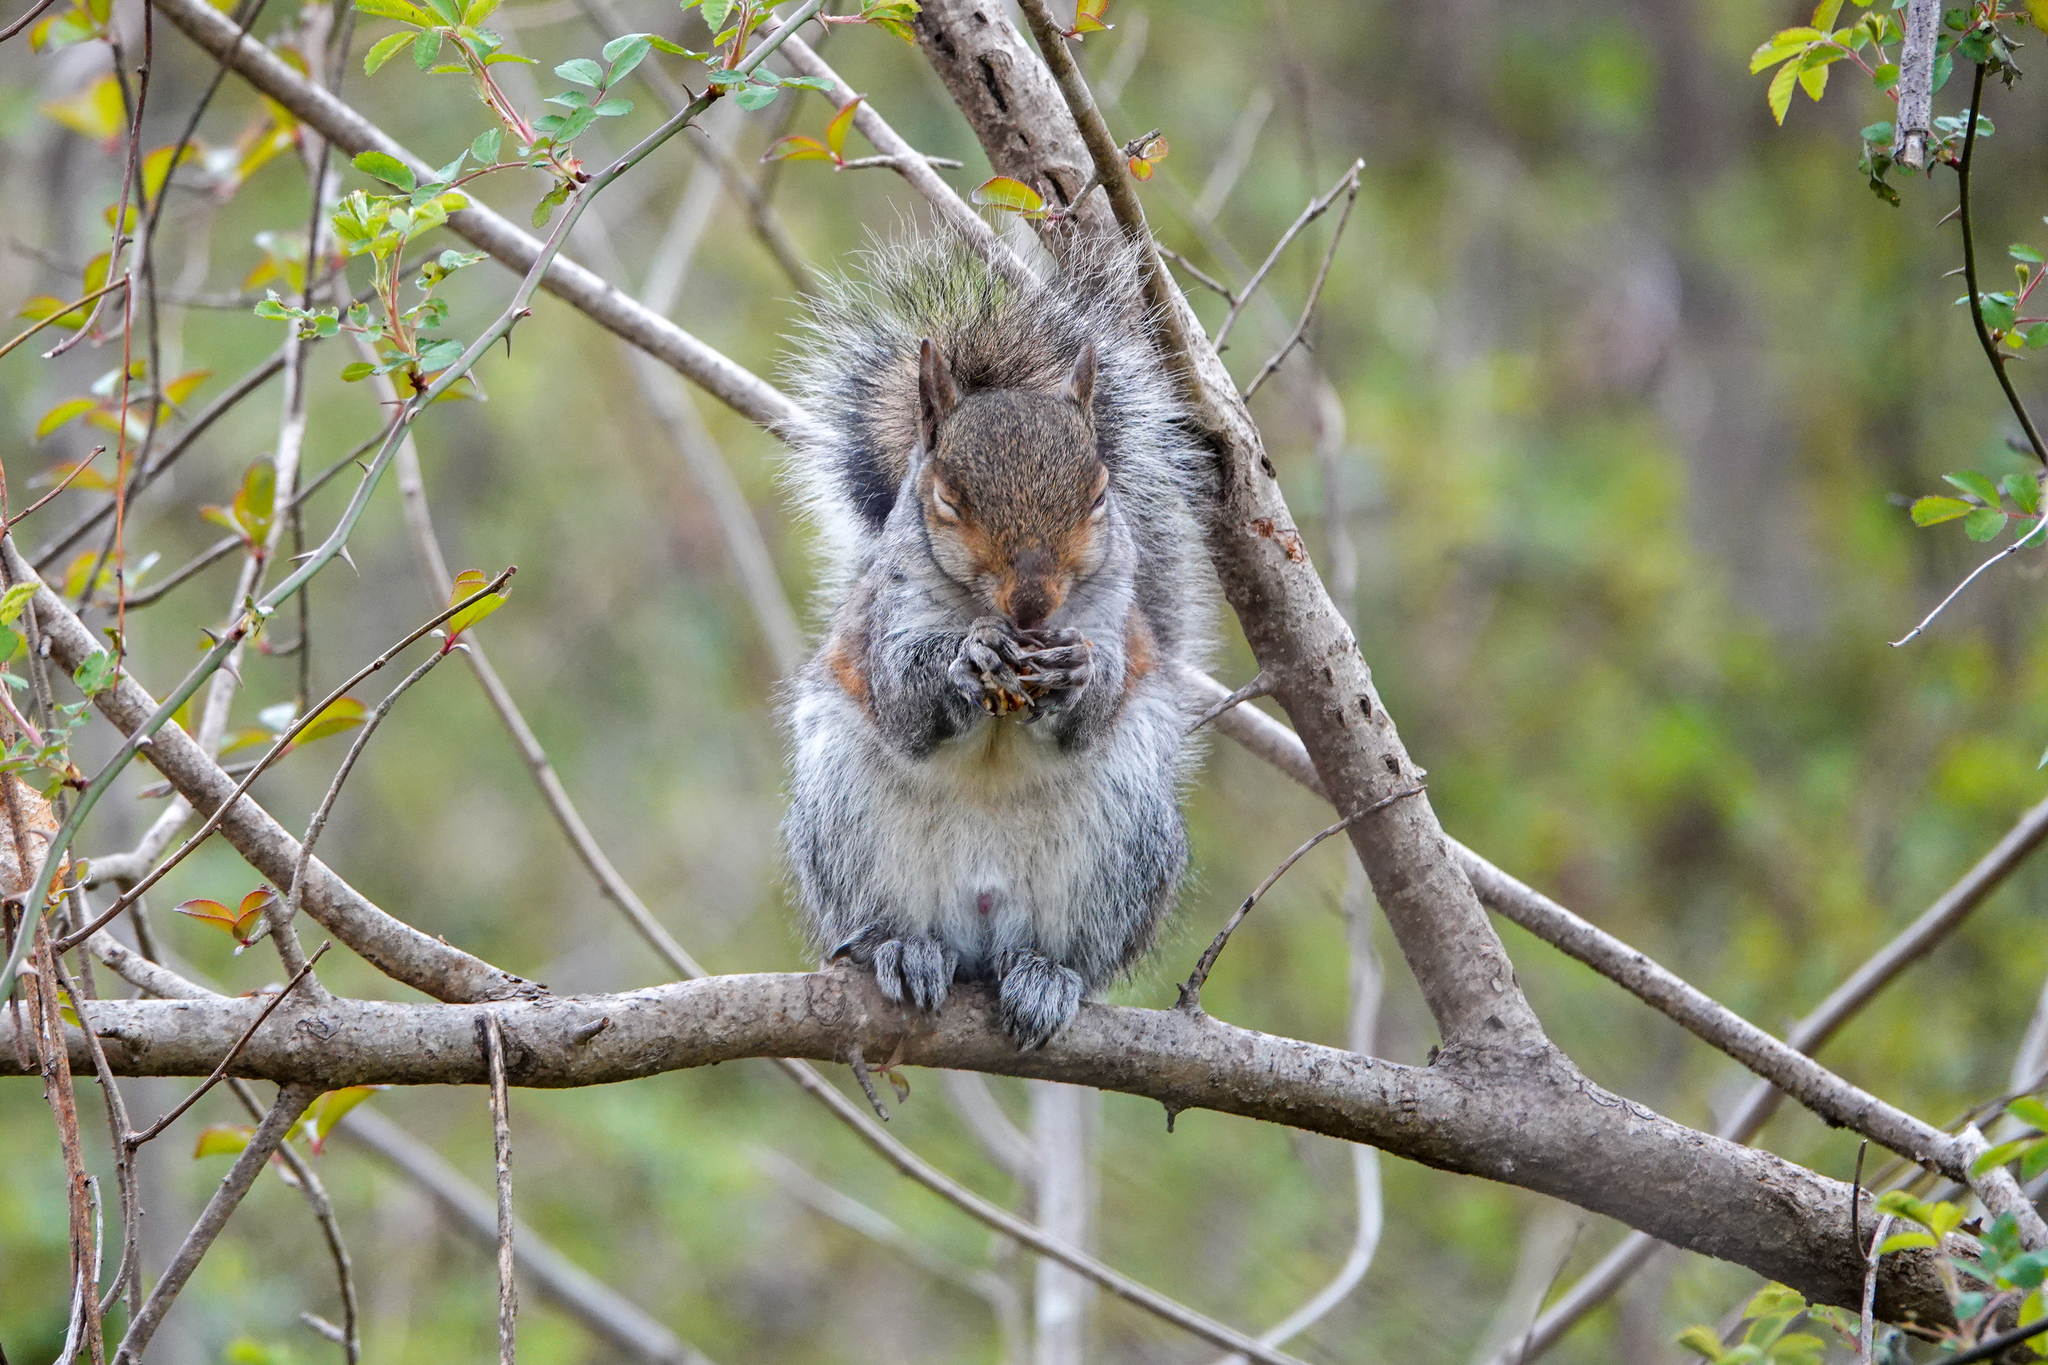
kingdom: Animalia
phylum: Chordata
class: Mammalia
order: Rodentia
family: Sciuridae
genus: Sciurus
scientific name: Sciurus carolinensis
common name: Eastern gray squirrel
